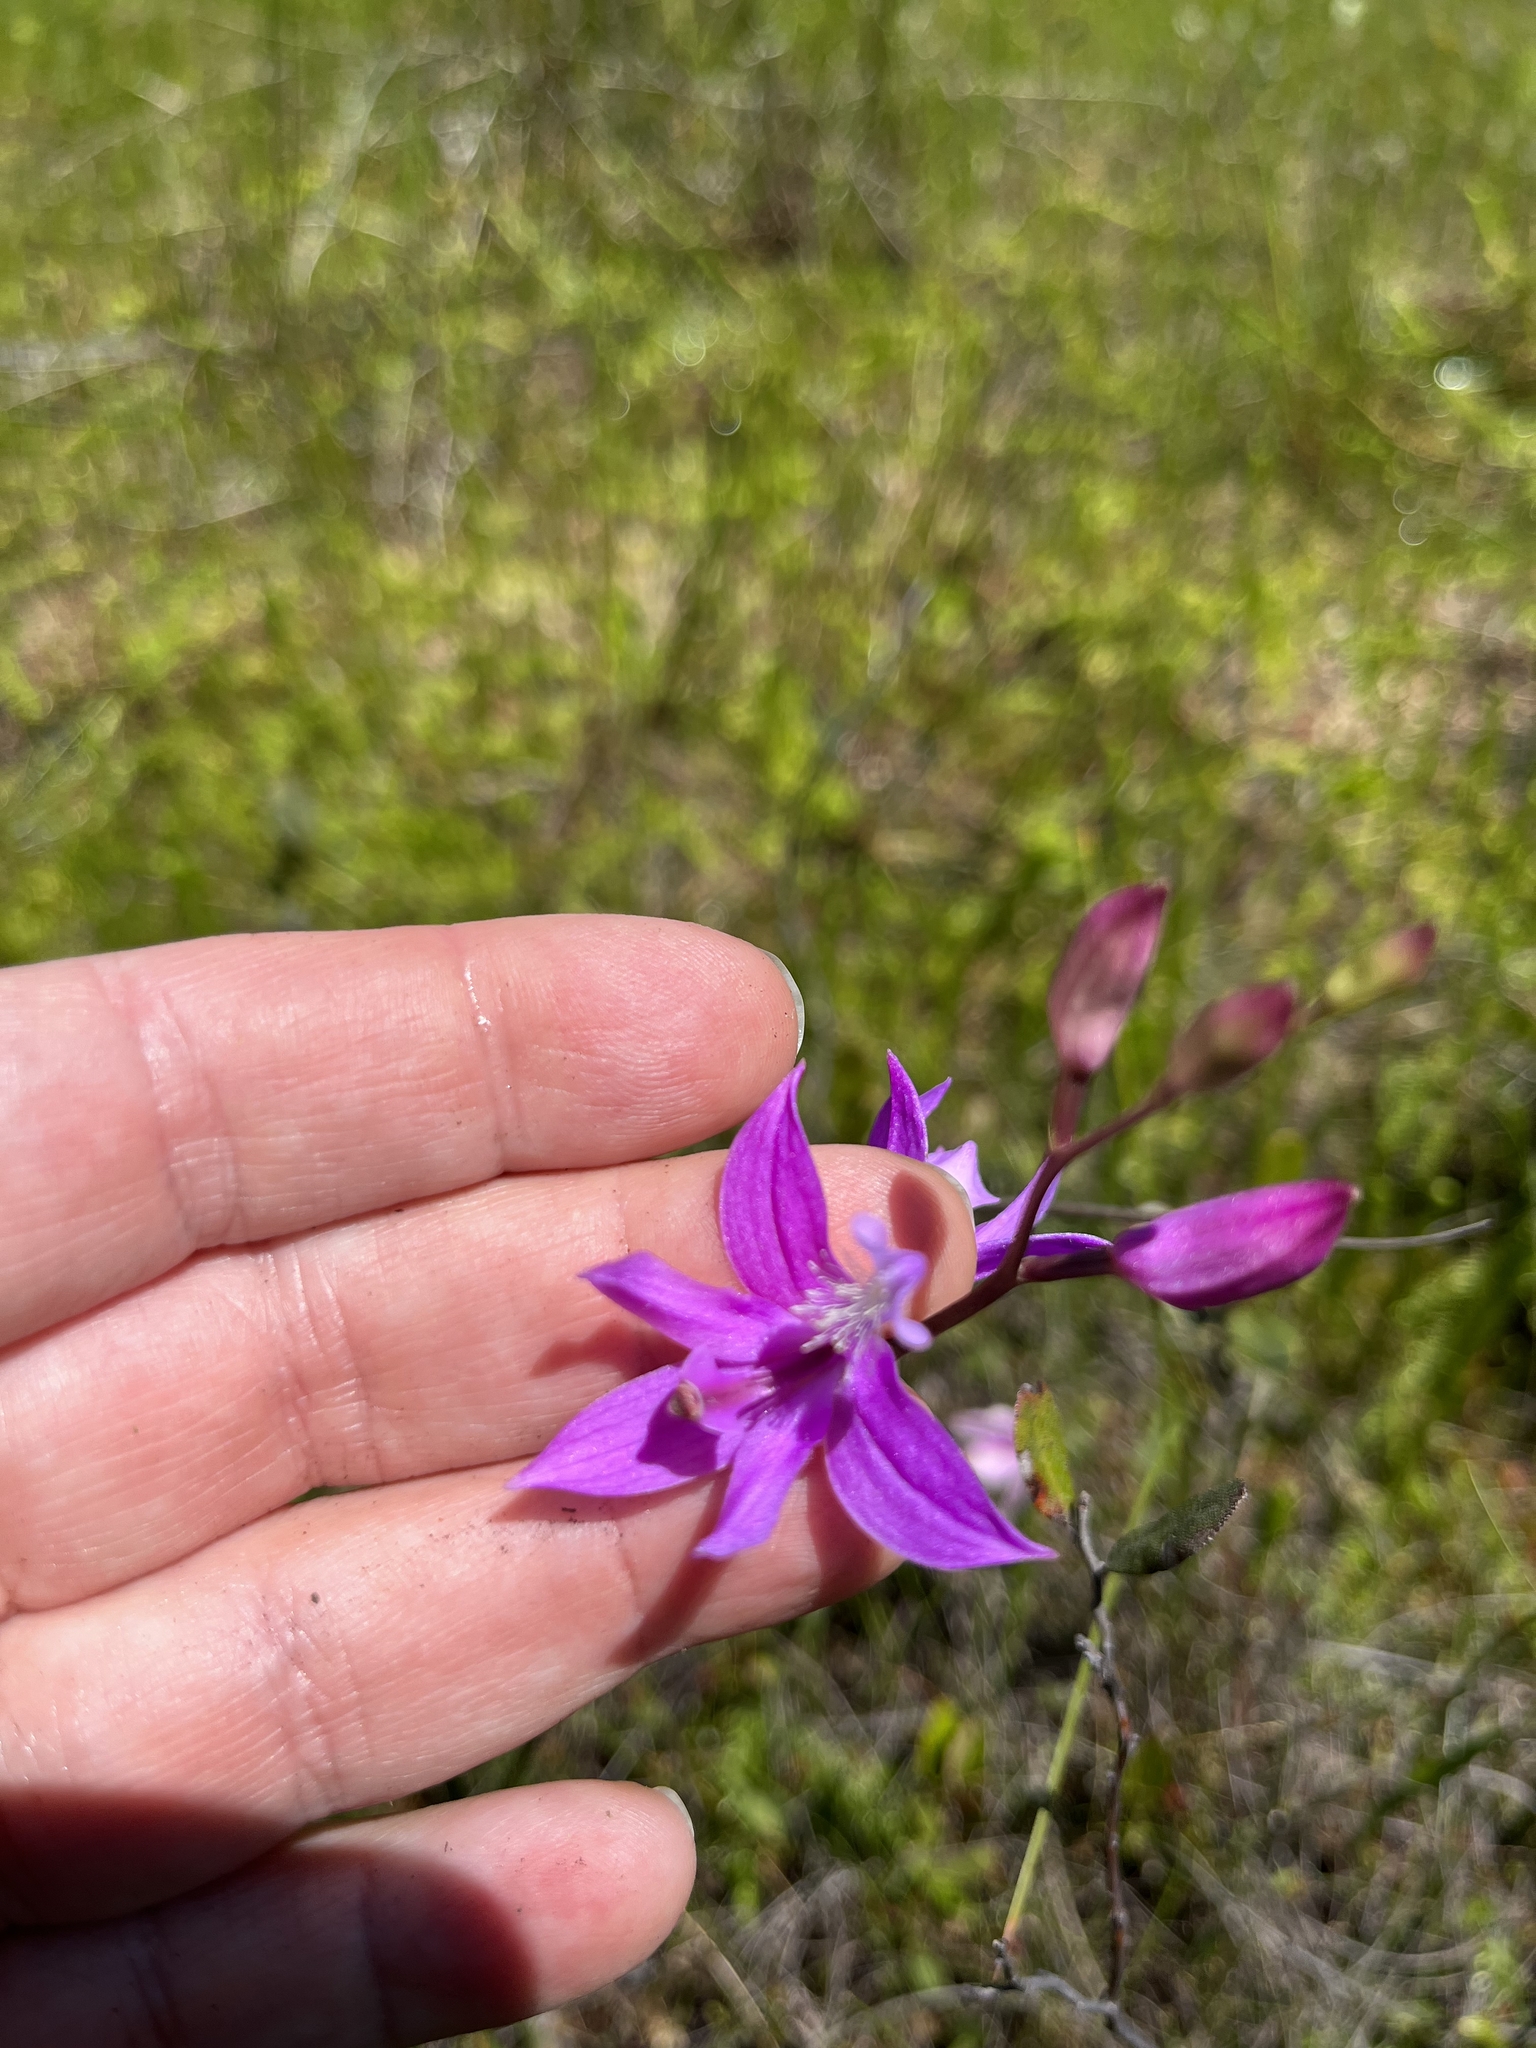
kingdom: Plantae
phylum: Tracheophyta
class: Liliopsida
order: Asparagales
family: Orchidaceae
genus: Calopogon
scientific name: Calopogon tuberosus
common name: Grass-pink
